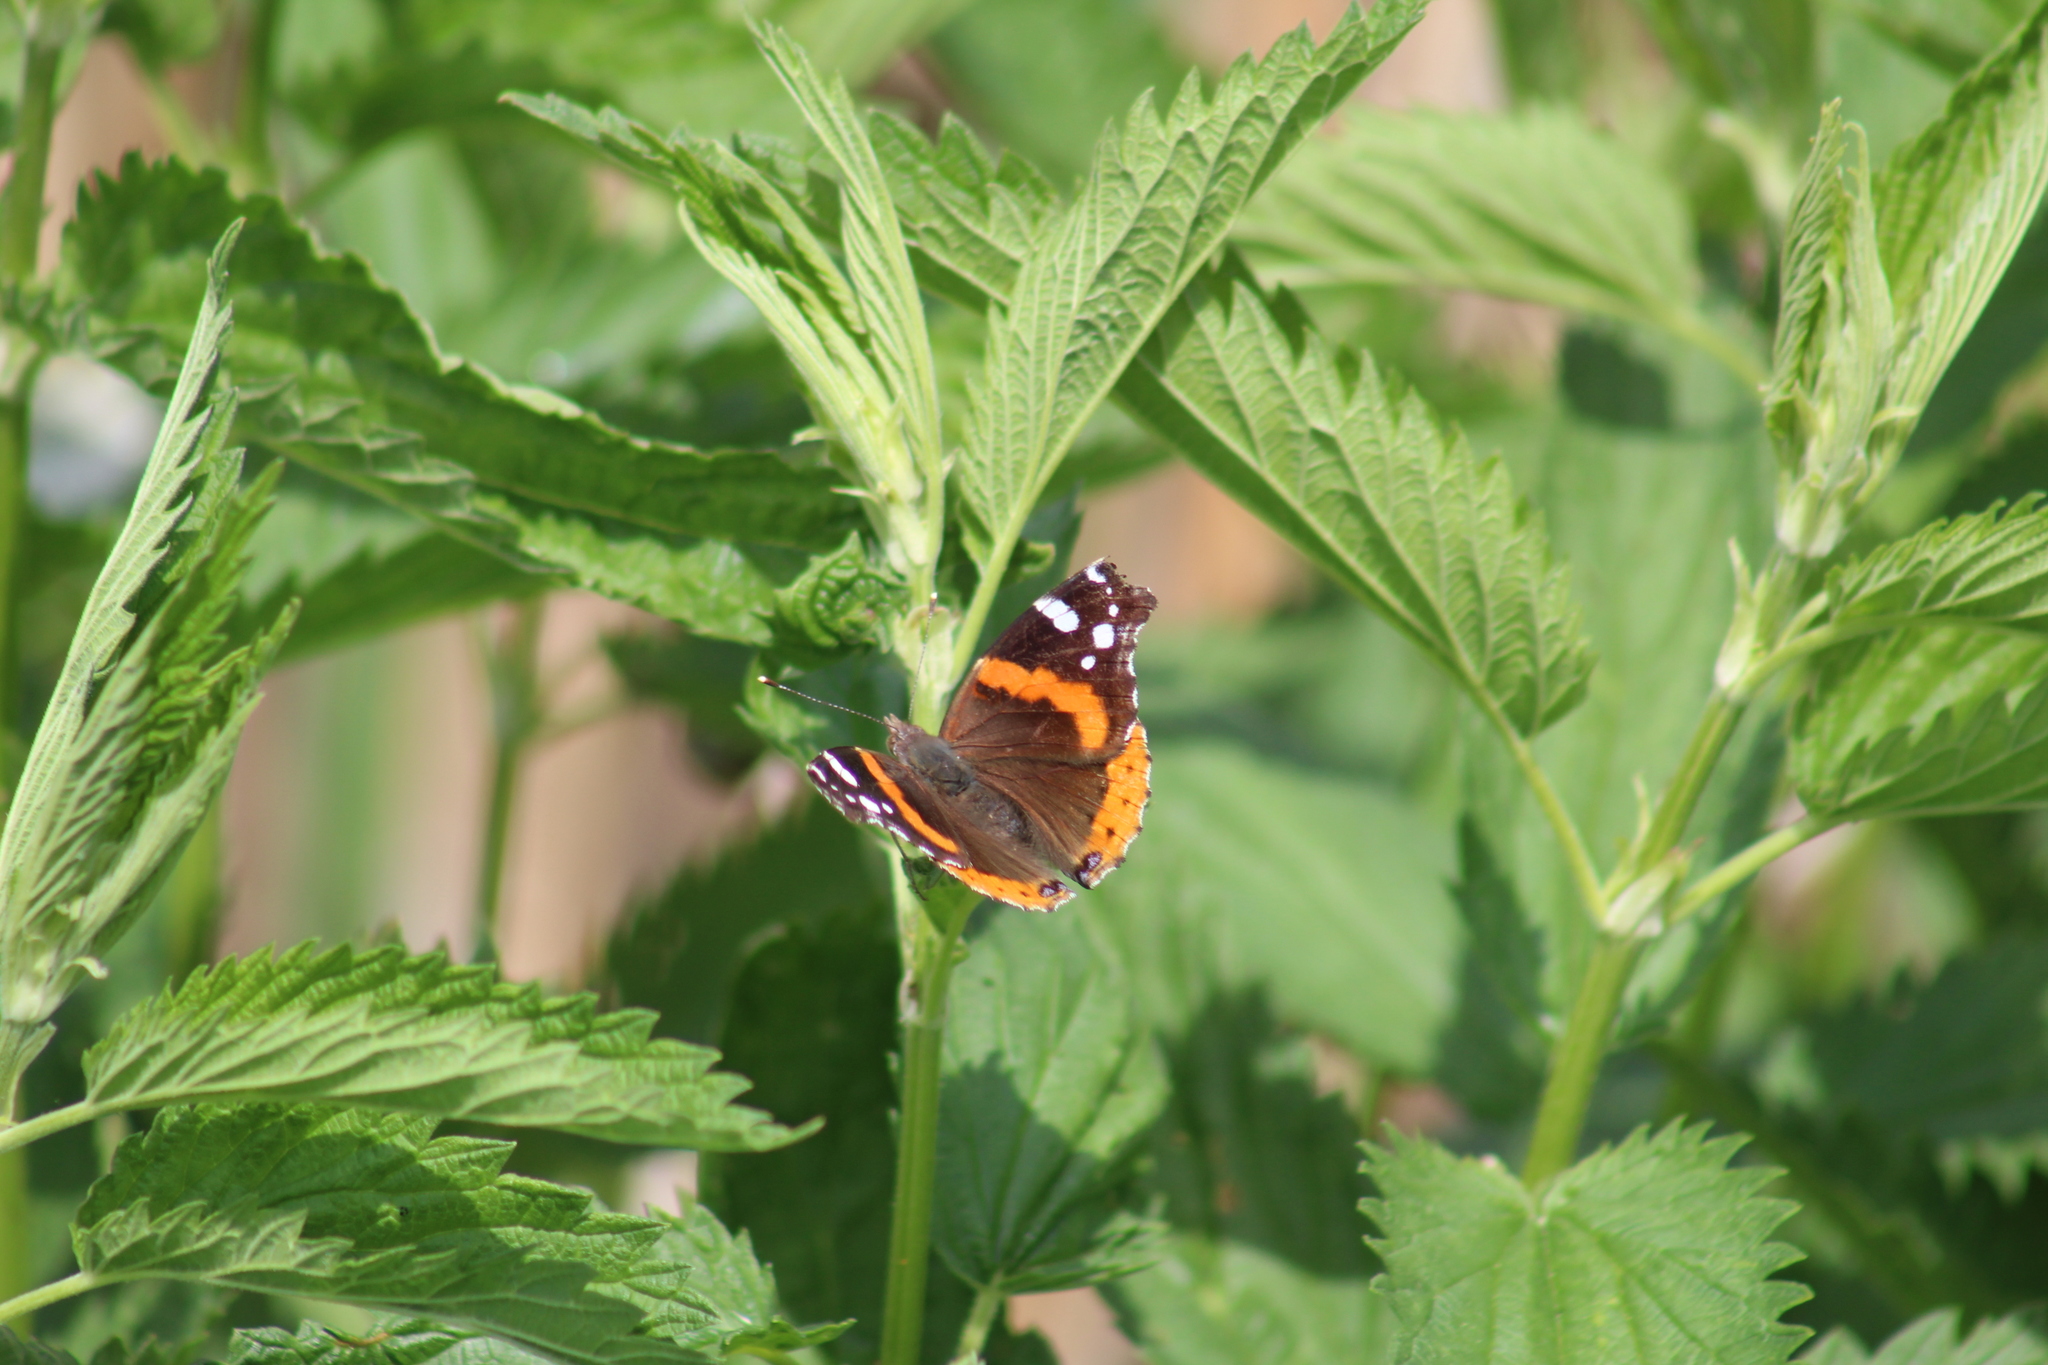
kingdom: Animalia
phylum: Arthropoda
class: Insecta
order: Lepidoptera
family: Nymphalidae
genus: Vanessa
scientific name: Vanessa atalanta
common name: Red admiral
